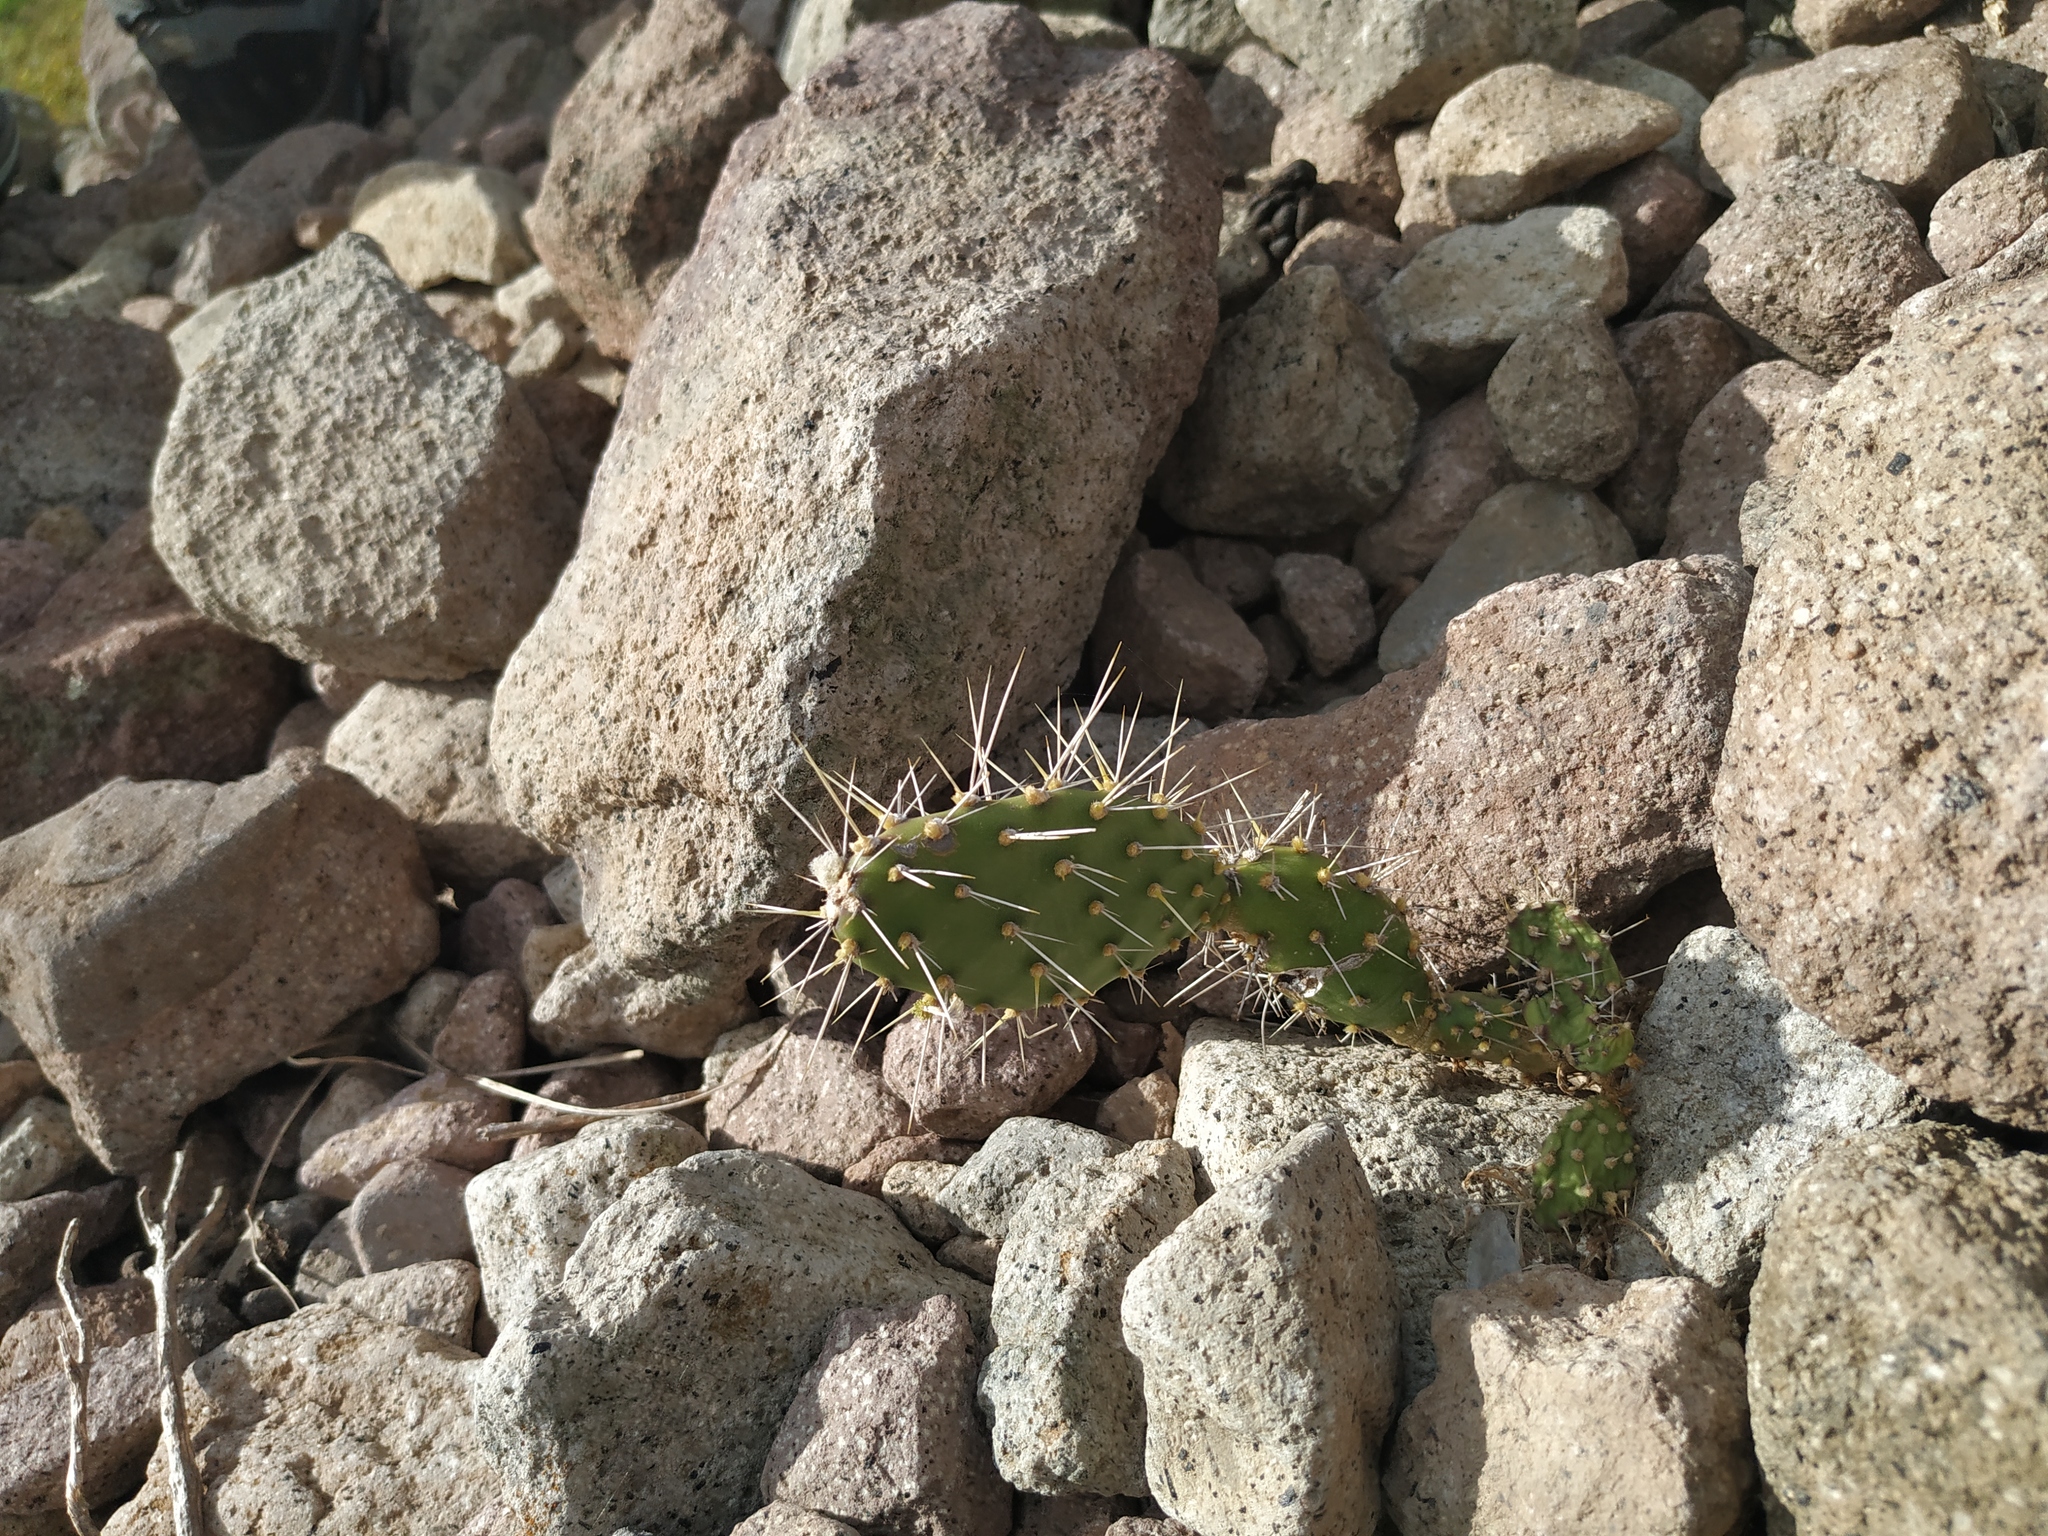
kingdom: Plantae
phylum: Tracheophyta
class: Magnoliopsida
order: Caryophyllales
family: Cactaceae
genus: Opuntia
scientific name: Opuntia triacanthos
